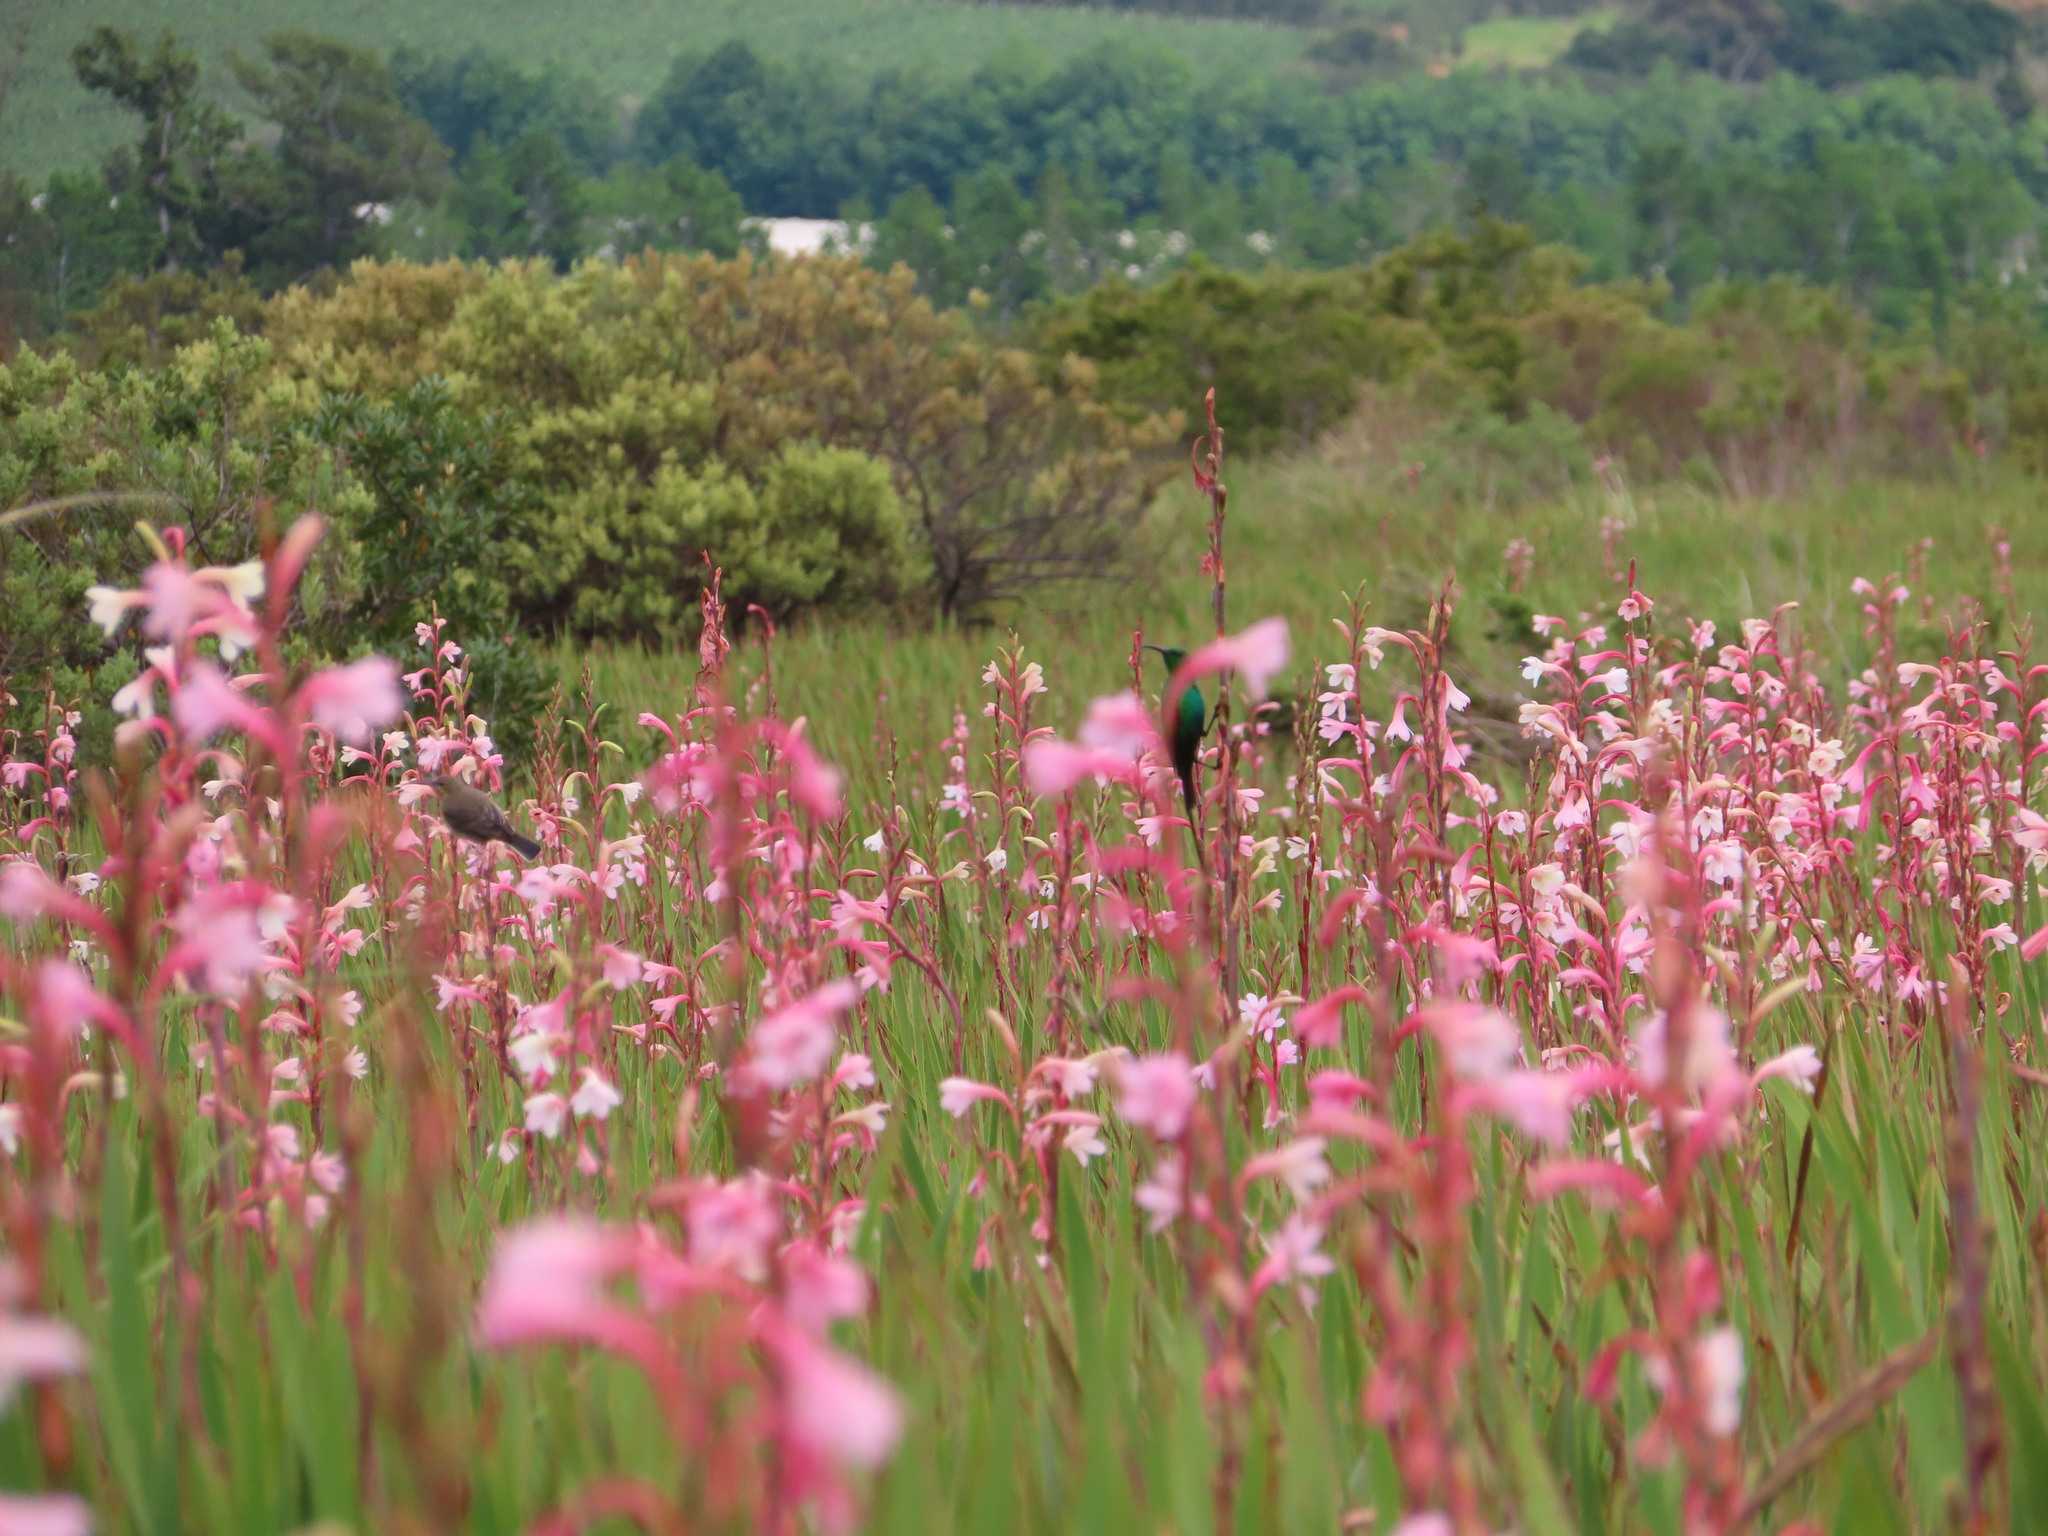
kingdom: Animalia
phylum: Chordata
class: Aves
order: Passeriformes
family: Nectariniidae
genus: Nectarinia
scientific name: Nectarinia famosa
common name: Malachite sunbird
